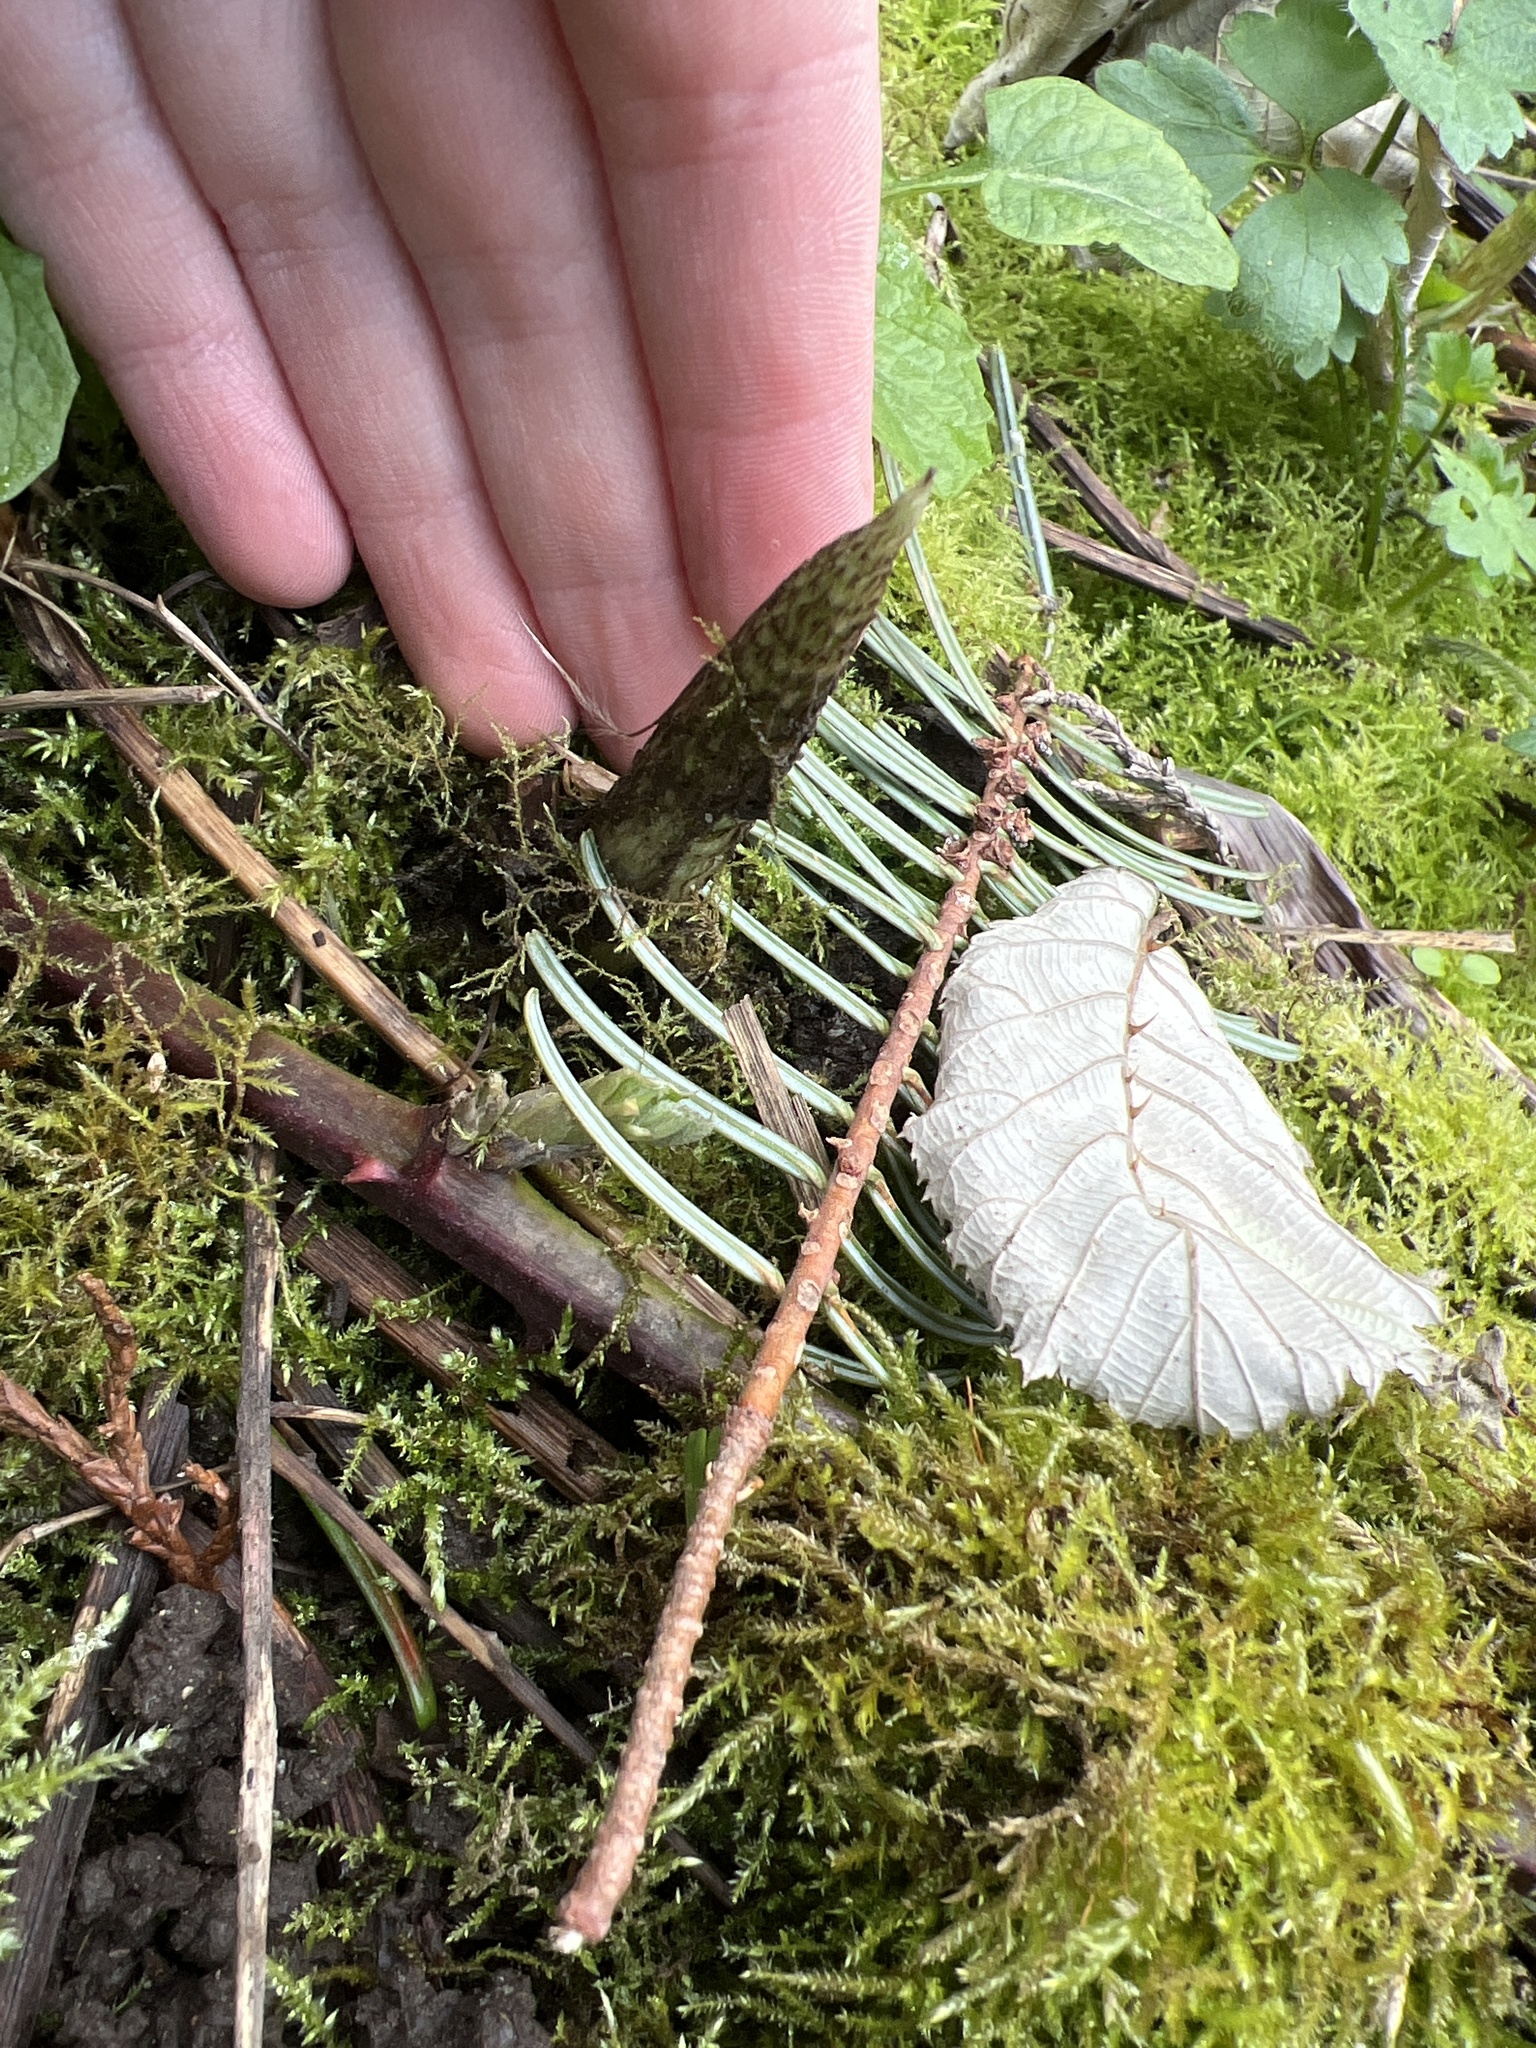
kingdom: Plantae
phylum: Tracheophyta
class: Polypodiopsida
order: Equisetales
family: Equisetaceae
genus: Equisetum
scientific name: Equisetum braunii
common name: Braun's horsetail
